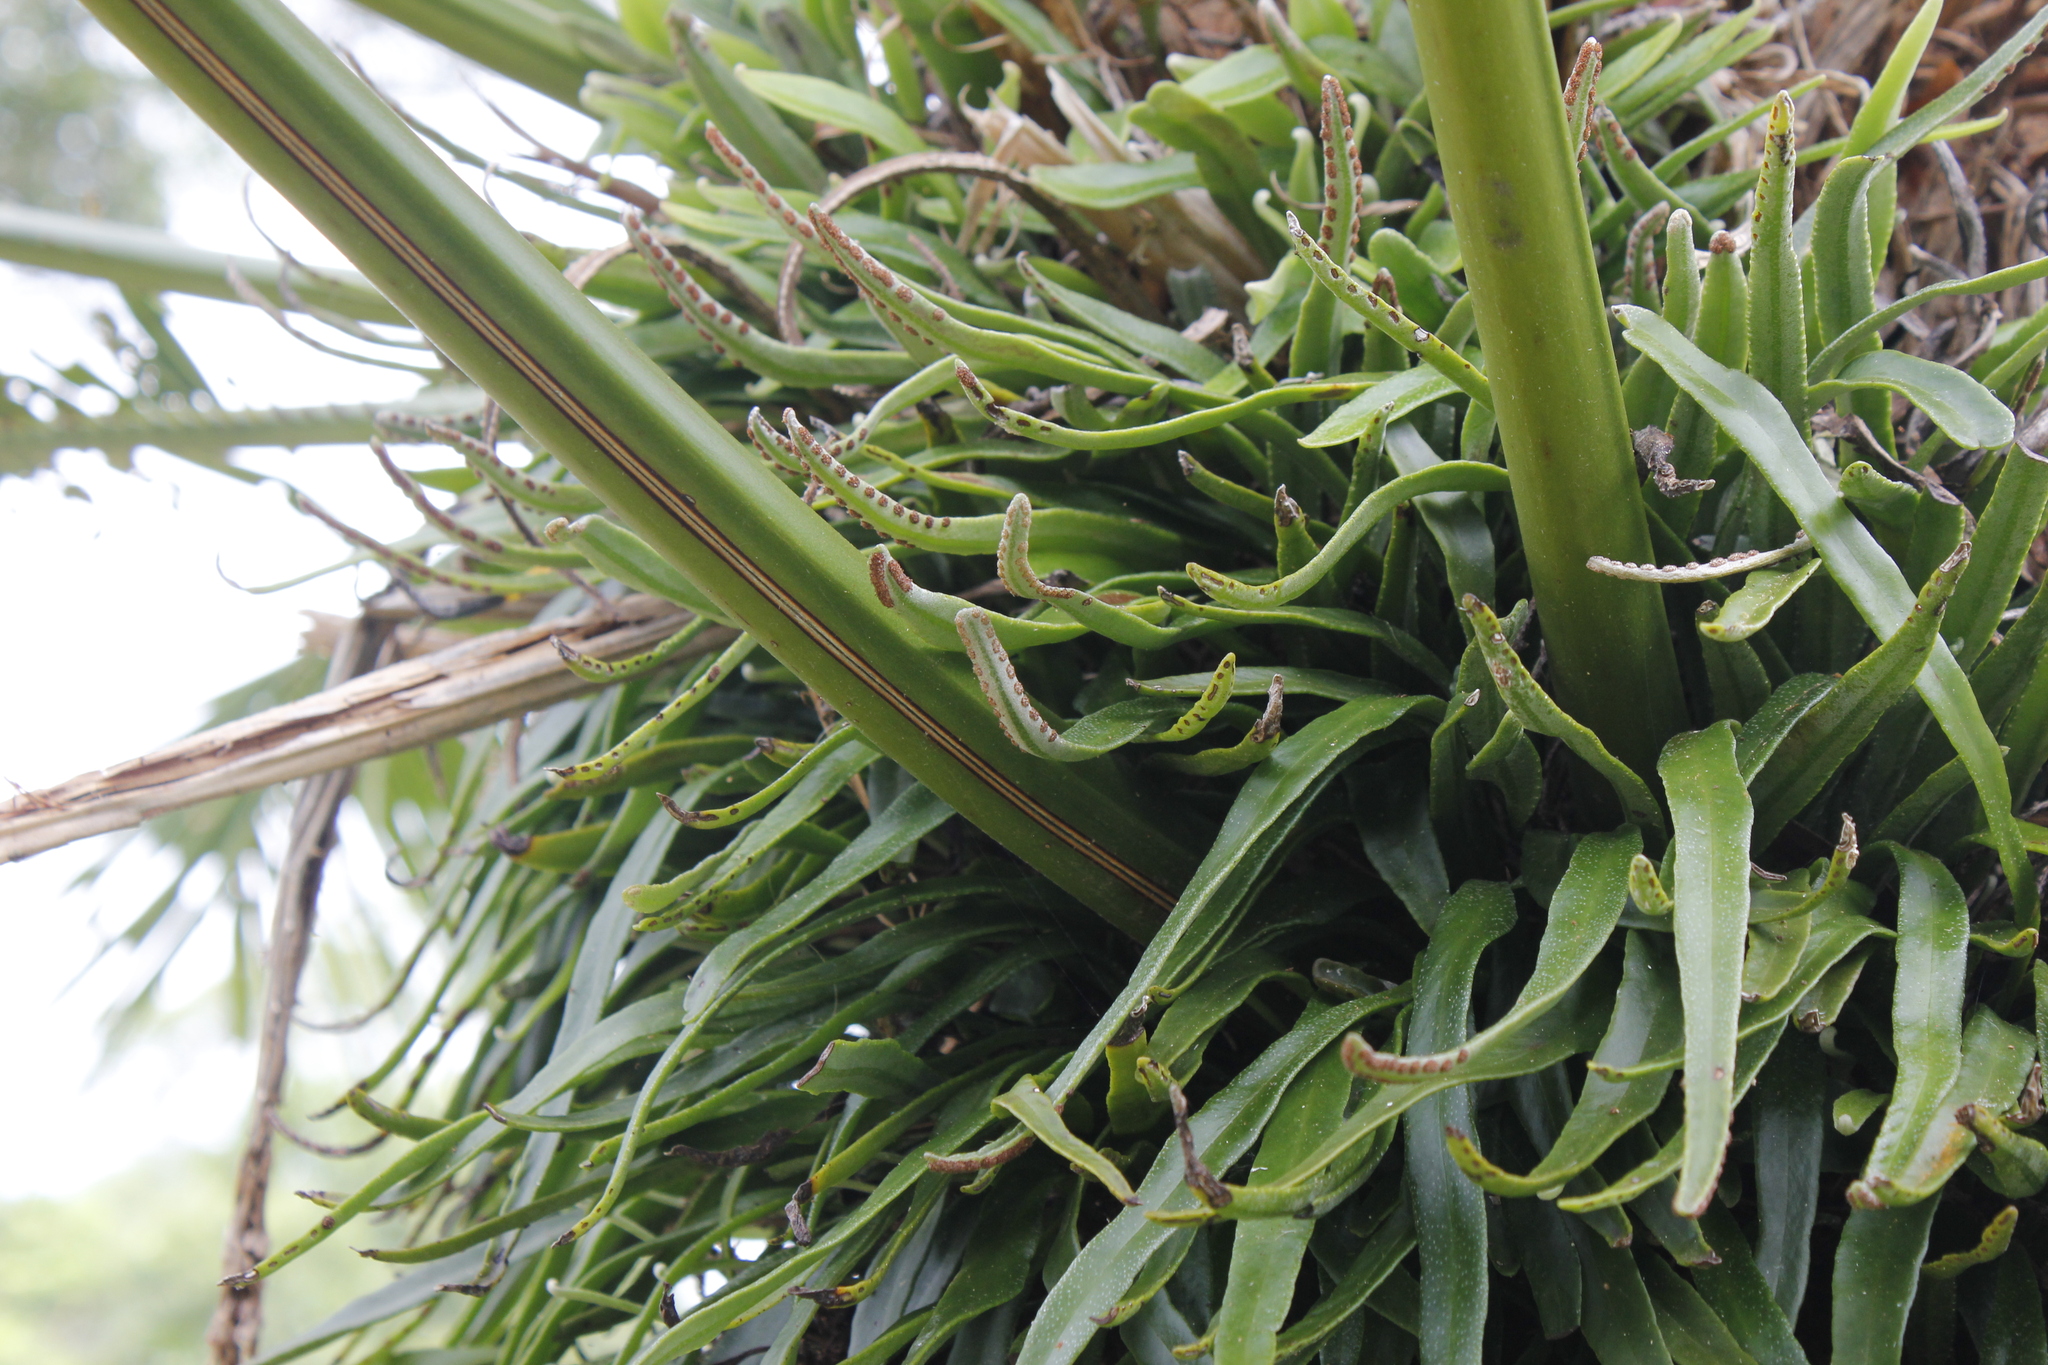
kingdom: Plantae
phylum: Tracheophyta
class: Polypodiopsida
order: Polypodiales
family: Polypodiaceae
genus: Pyrrosia
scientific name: Pyrrosia confluens
